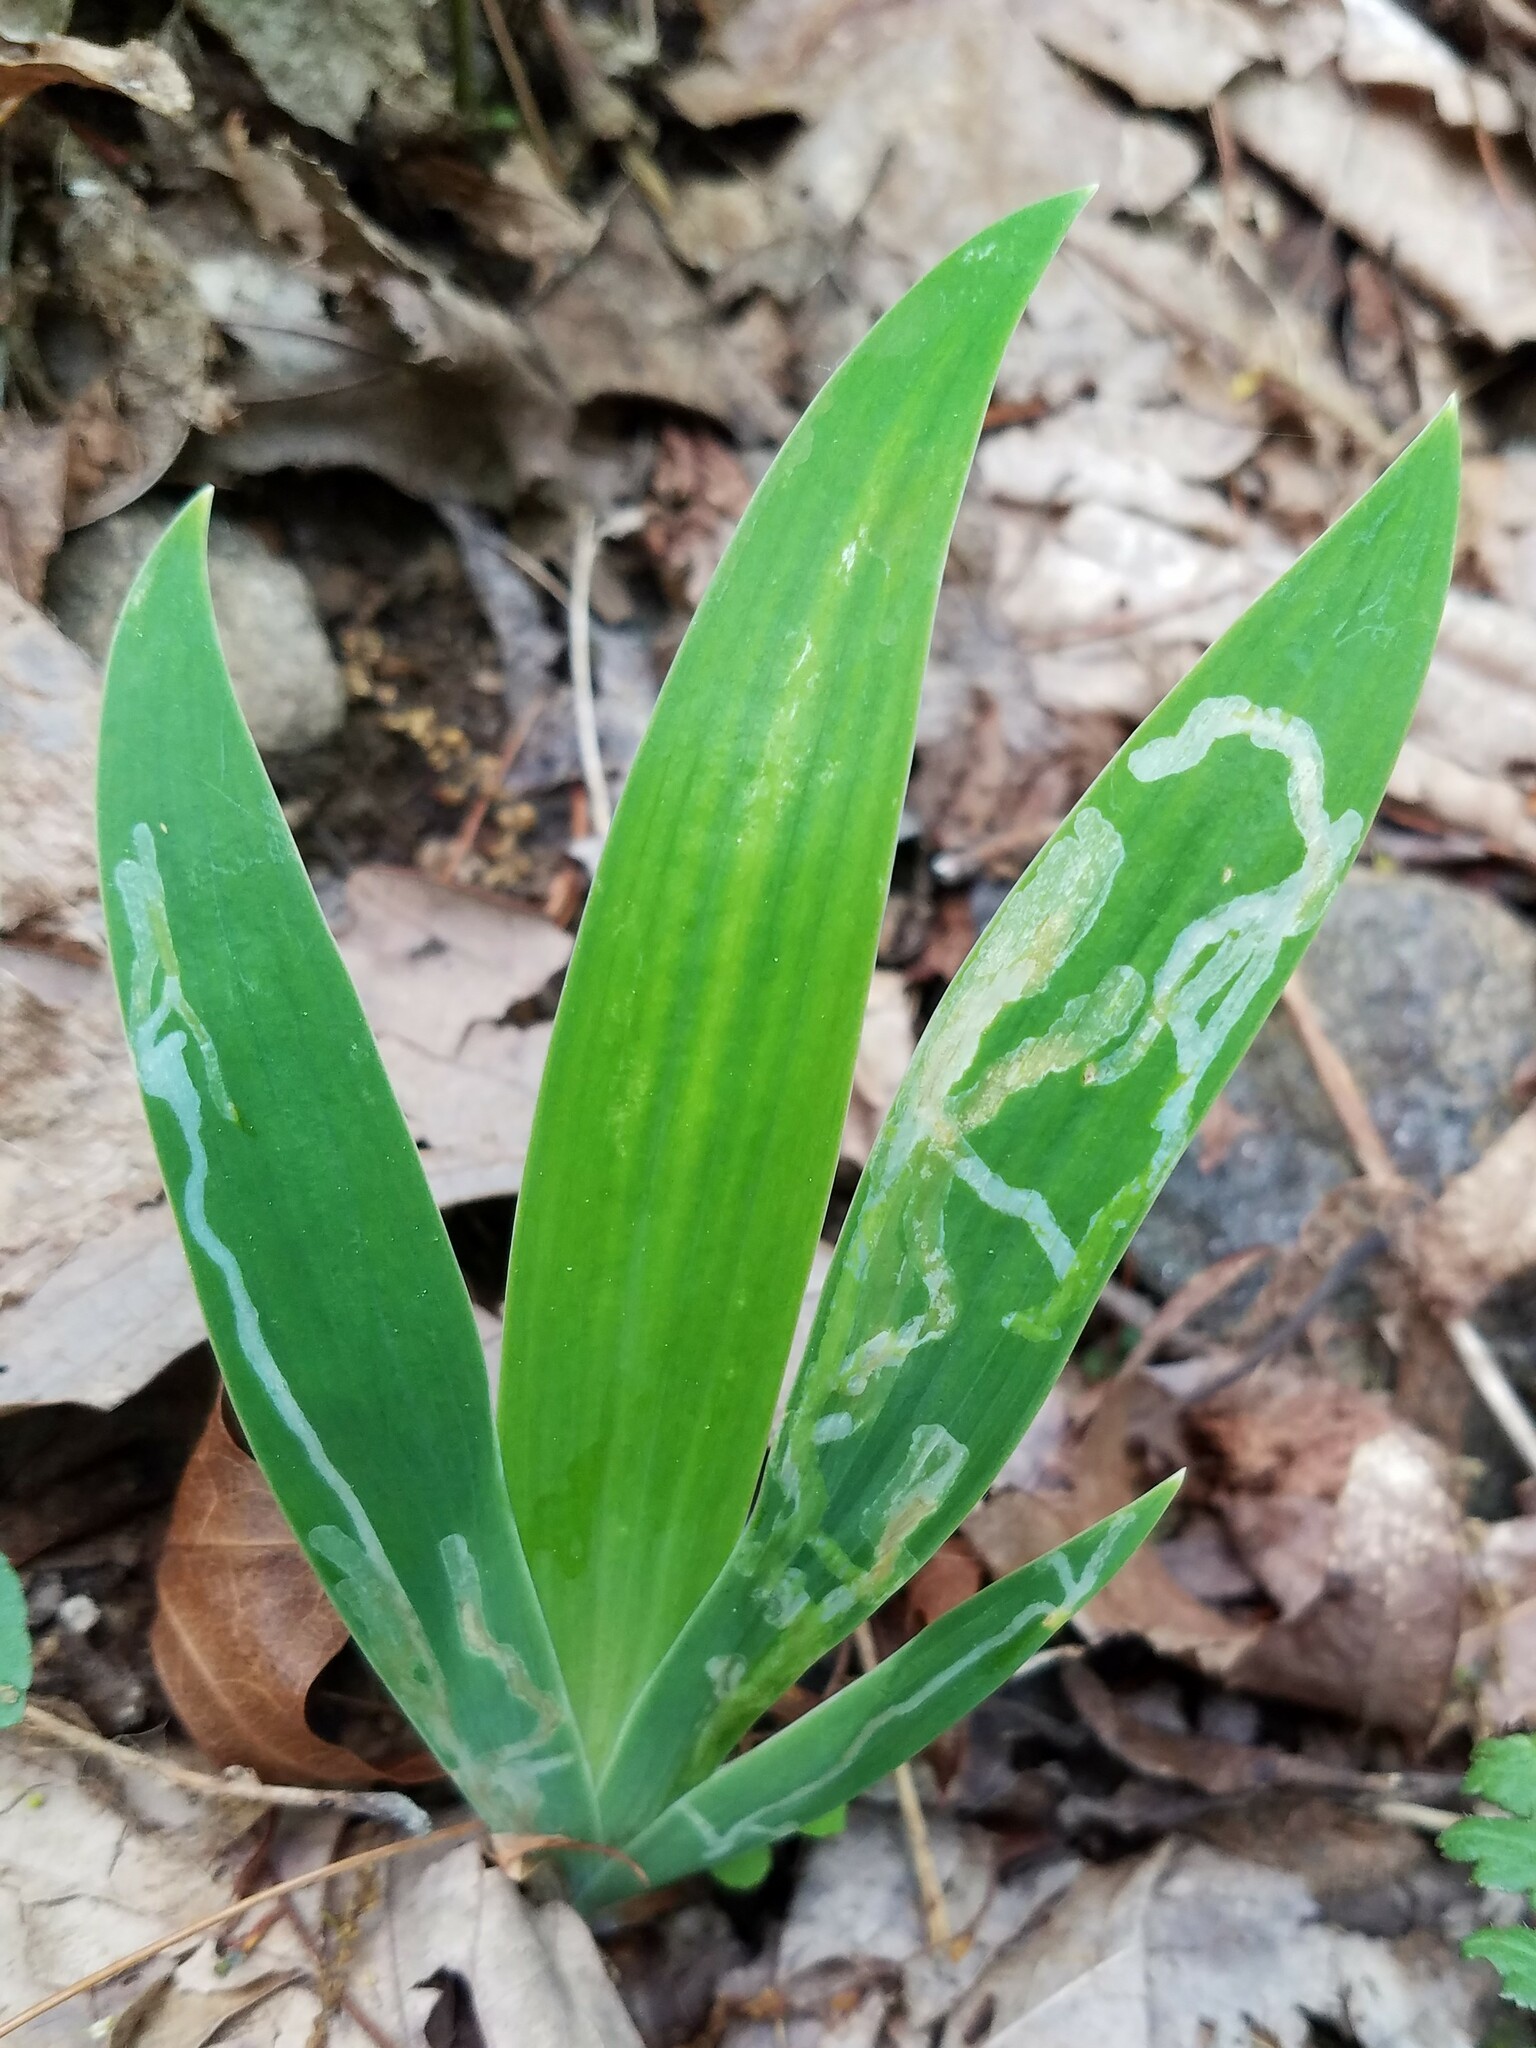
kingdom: Plantae
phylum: Tracheophyta
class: Liliopsida
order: Asparagales
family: Iridaceae
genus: Iris
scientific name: Iris cristata
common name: Crested iris
